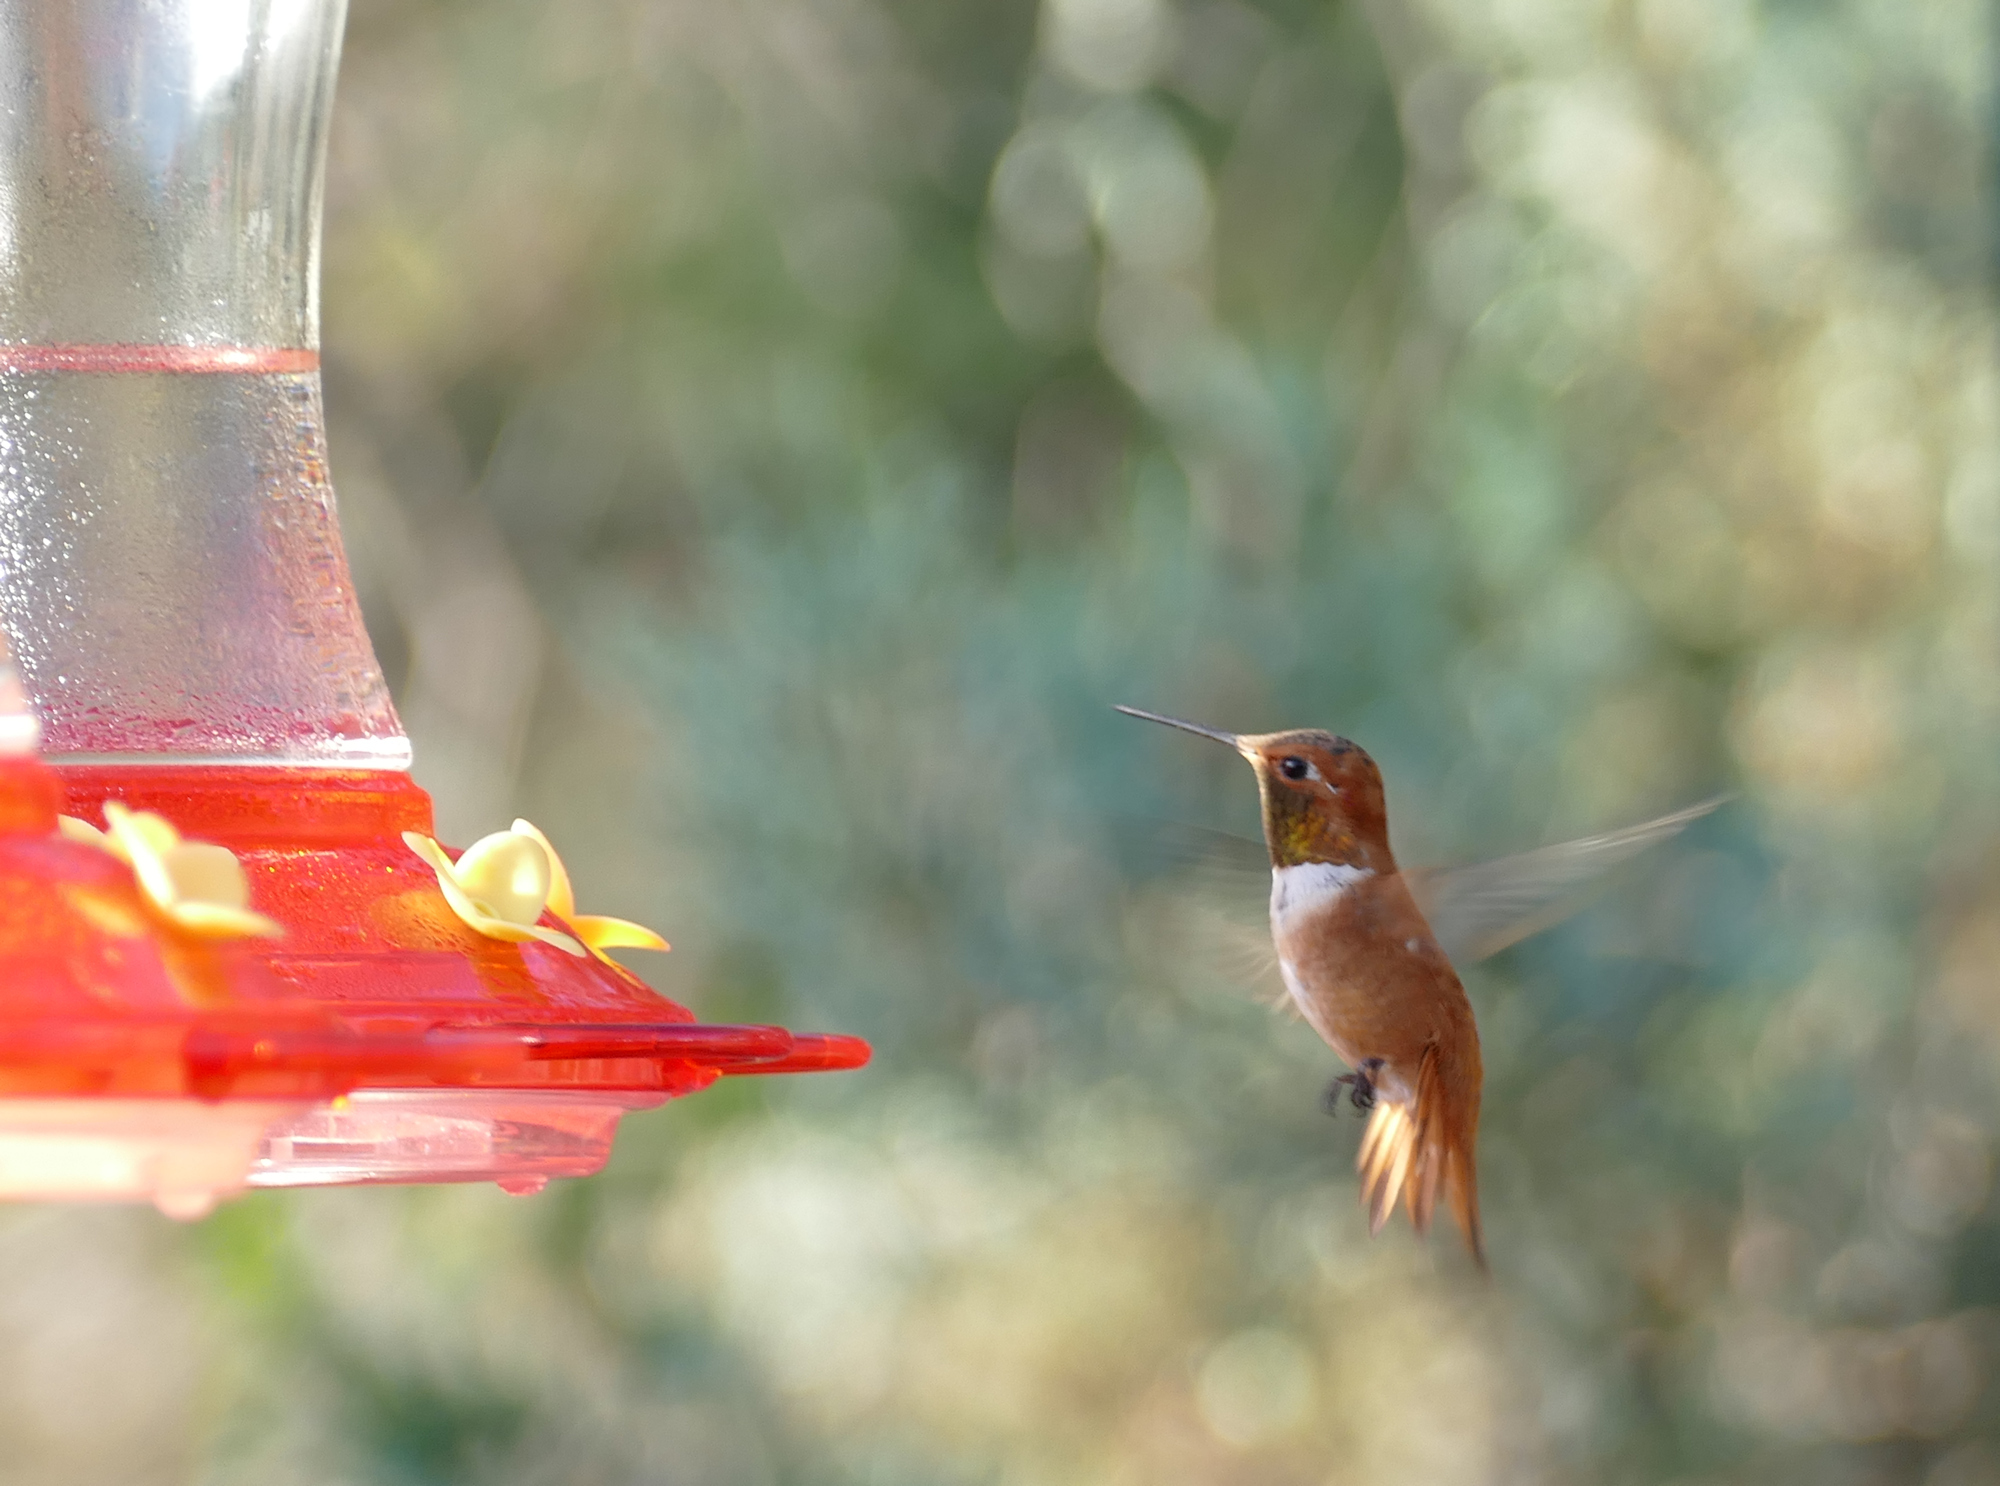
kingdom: Animalia
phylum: Chordata
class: Aves
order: Apodiformes
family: Trochilidae
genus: Selasphorus
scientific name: Selasphorus rufus
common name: Rufous hummingbird
